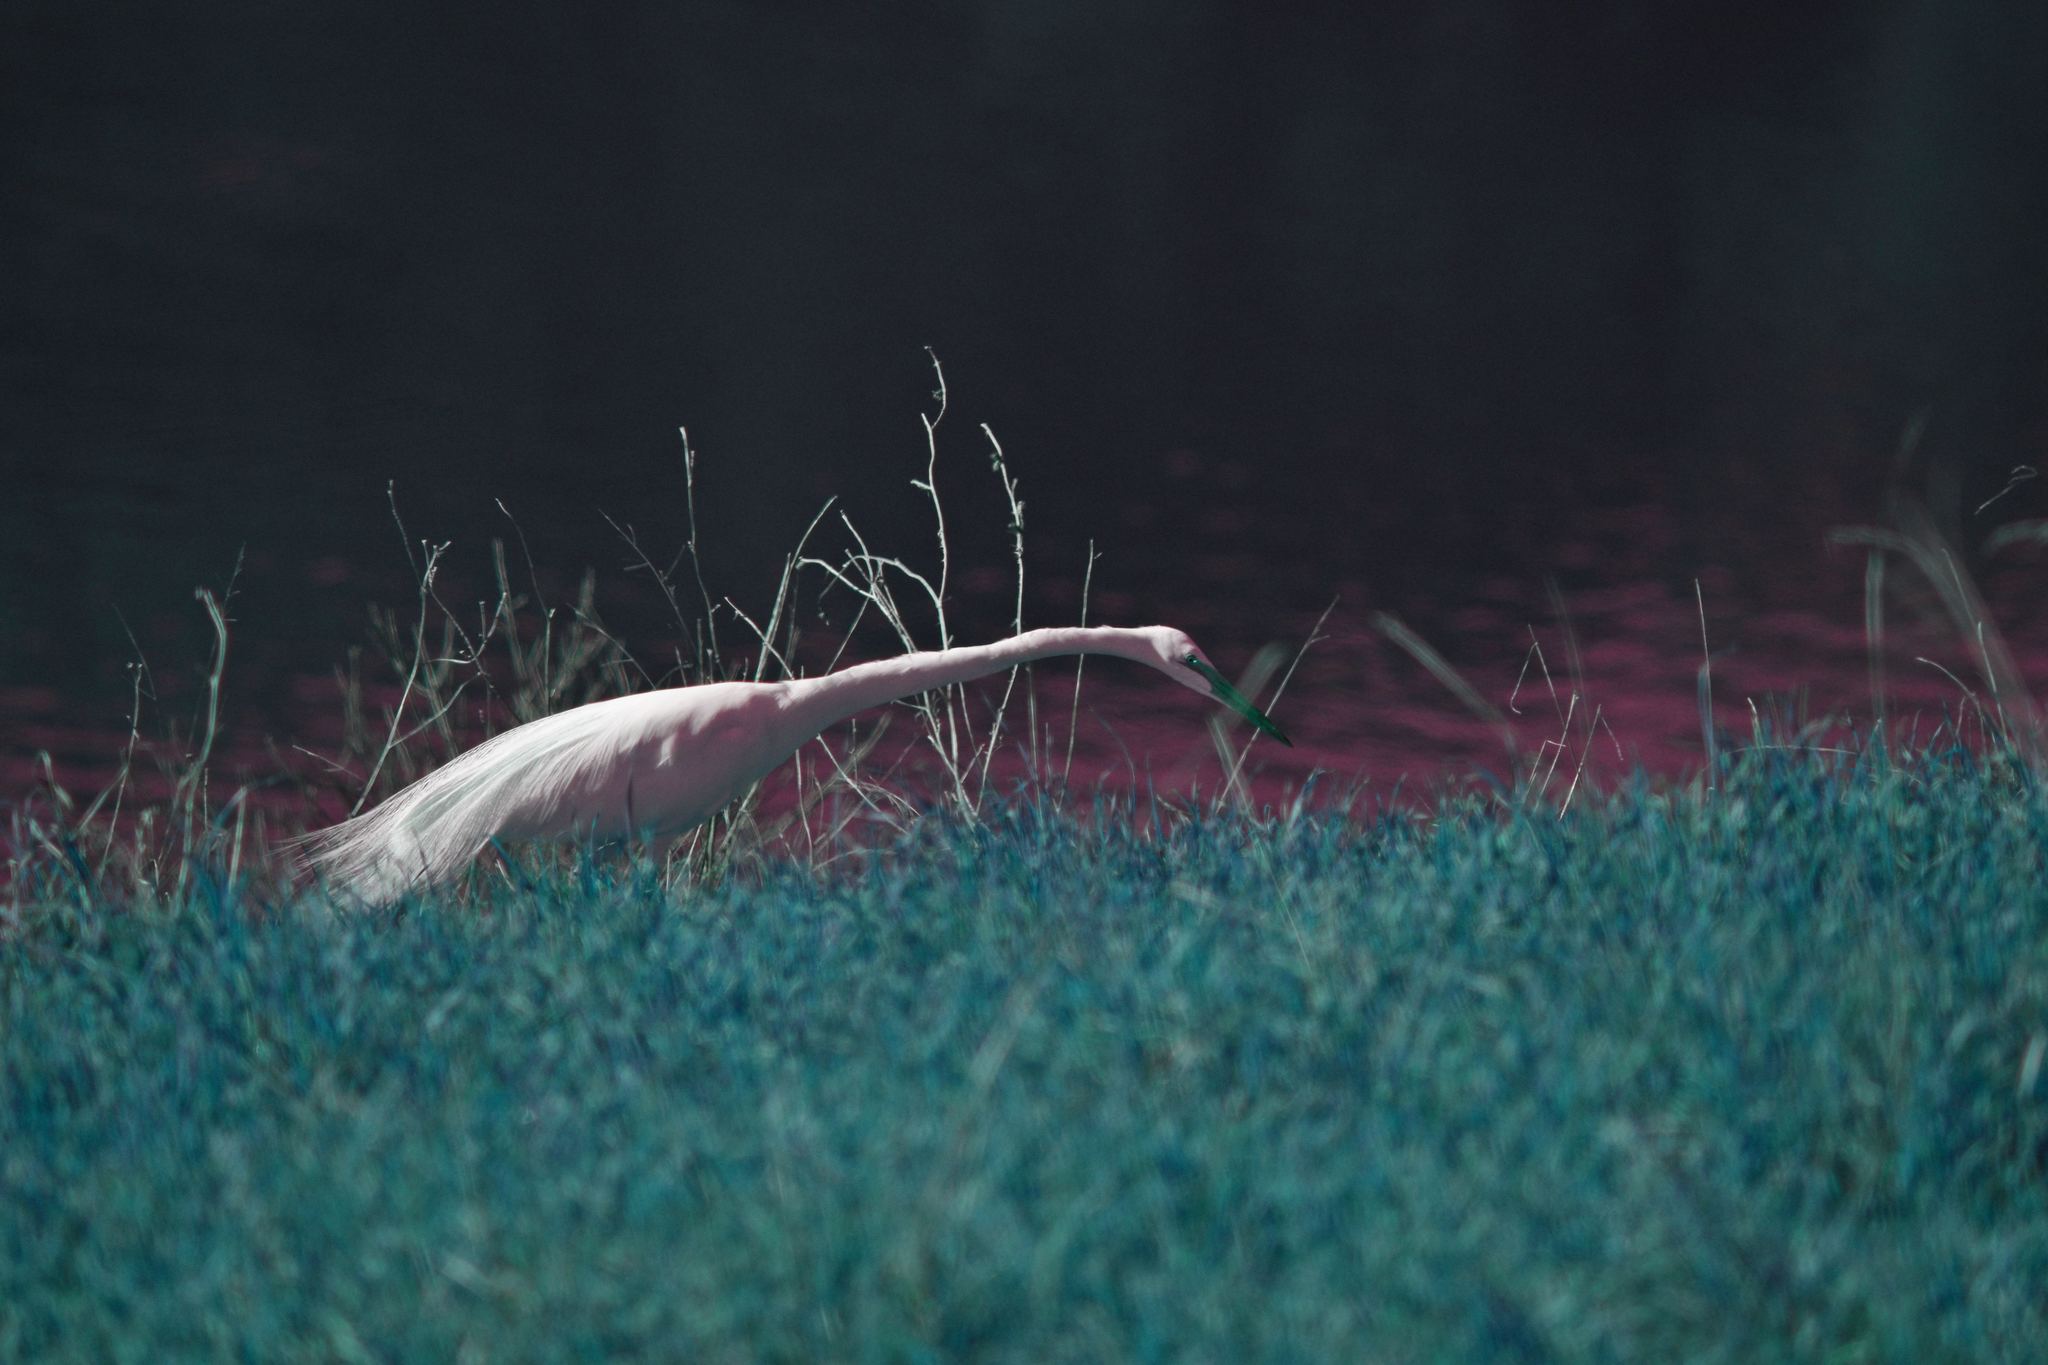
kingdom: Animalia
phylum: Chordata
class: Aves
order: Pelecaniformes
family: Ardeidae
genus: Ardea
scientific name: Ardea alba
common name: Great egret
